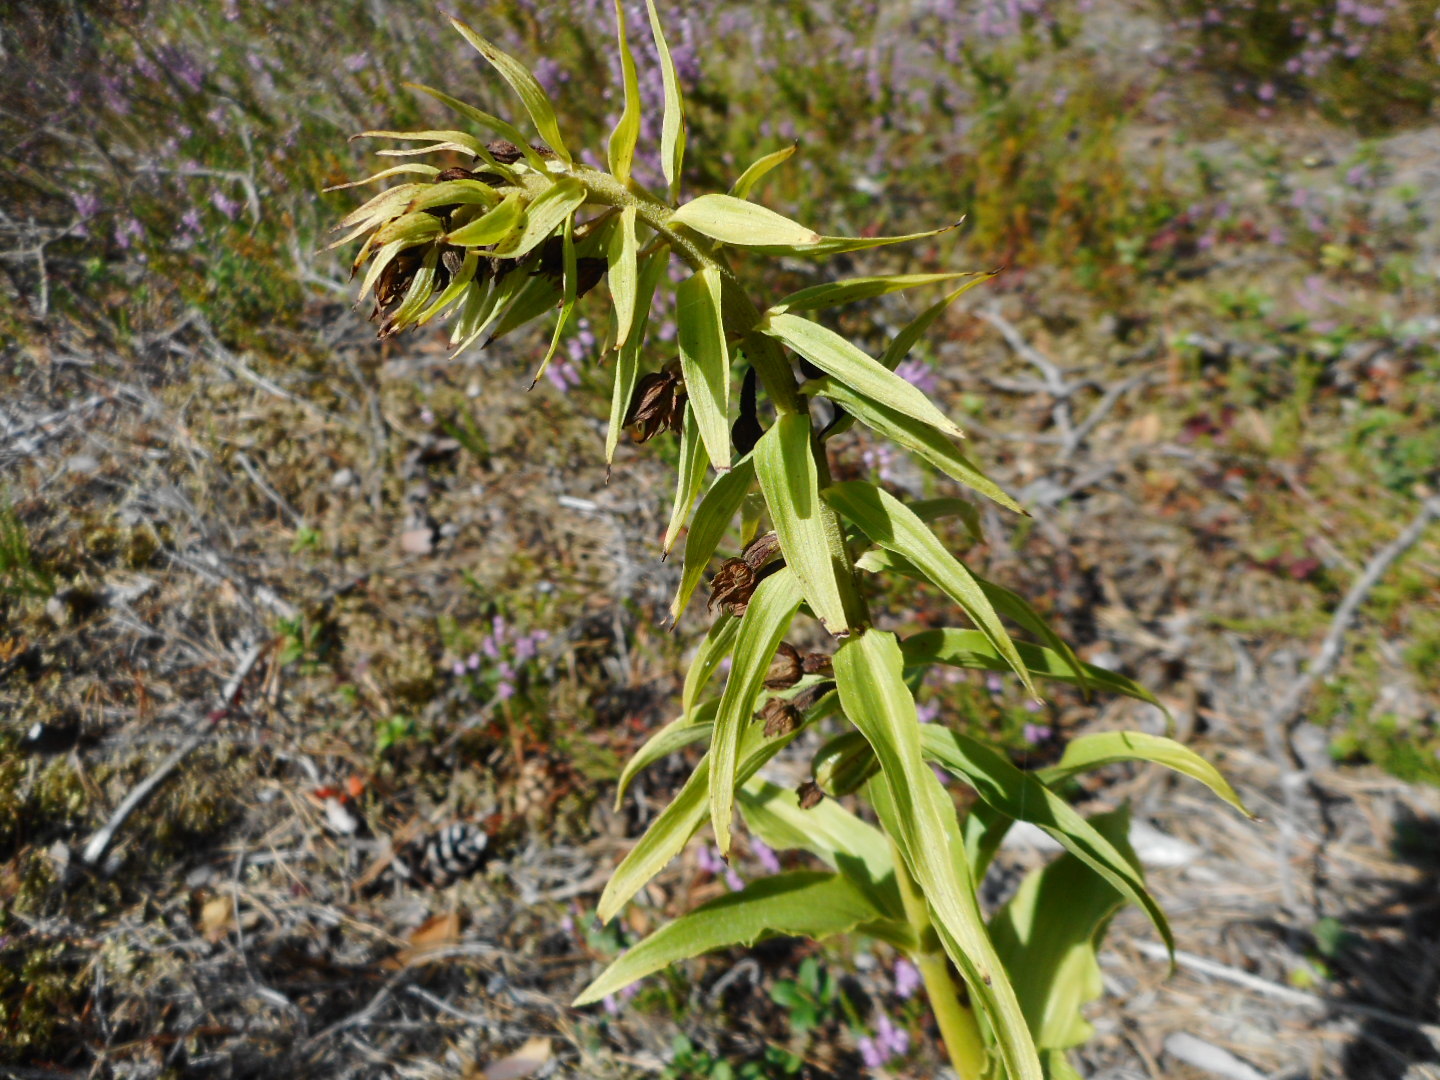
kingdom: Plantae
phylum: Tracheophyta
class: Liliopsida
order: Asparagales
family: Orchidaceae
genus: Epipactis
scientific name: Epipactis helleborine
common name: Broad-leaved helleborine
